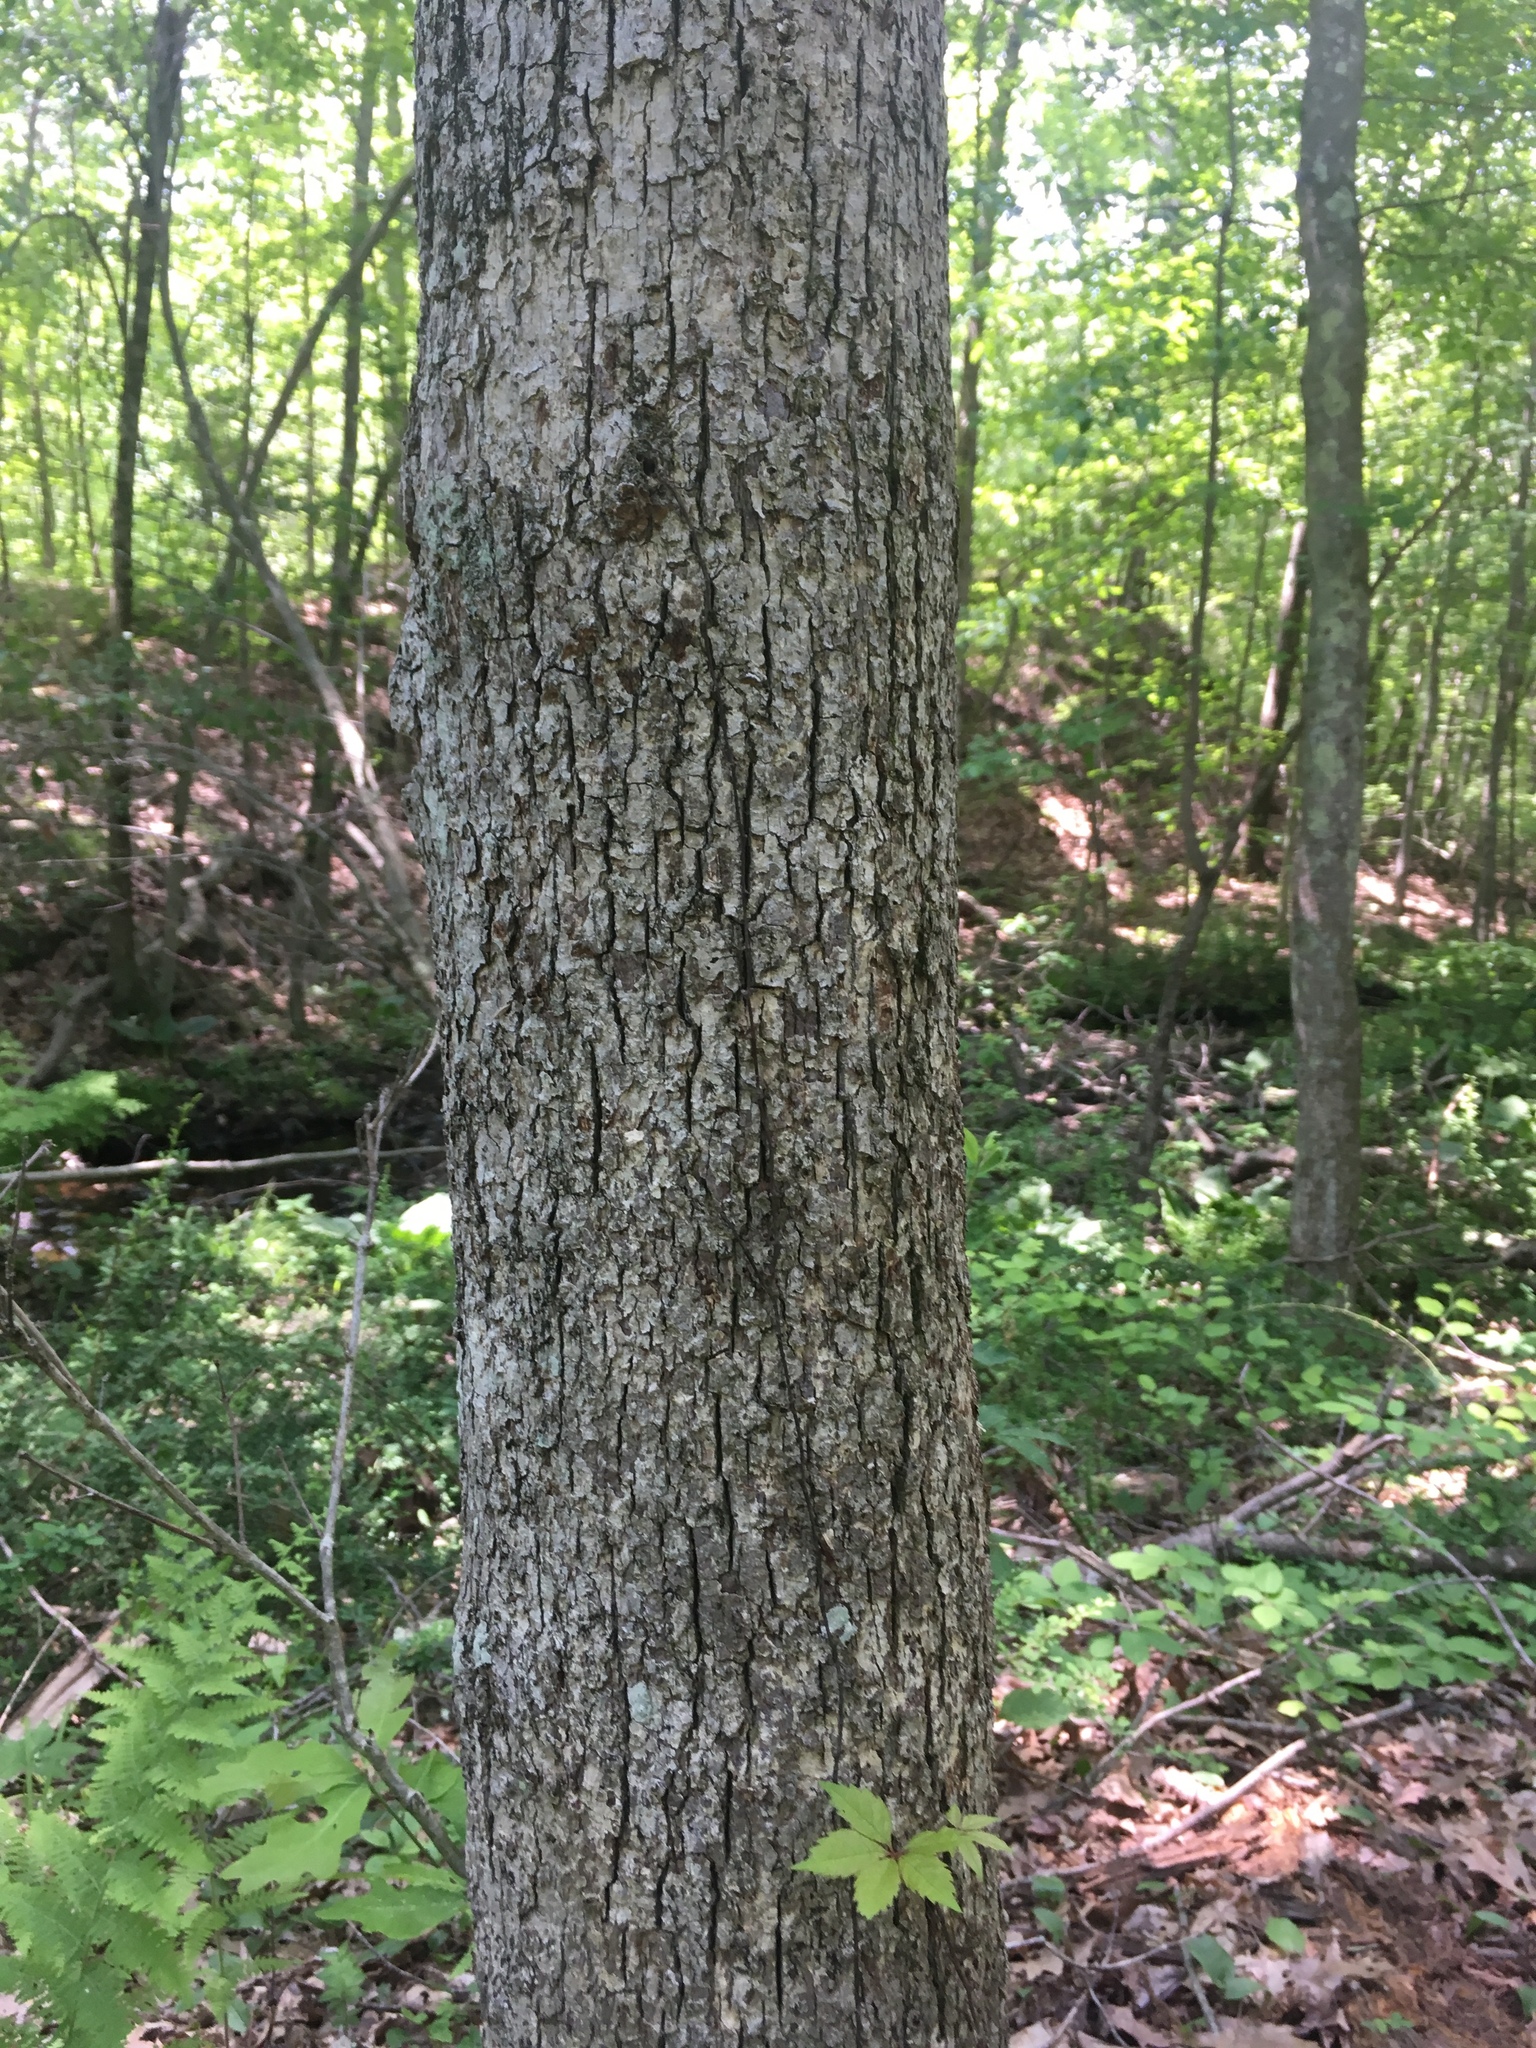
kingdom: Plantae
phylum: Tracheophyta
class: Magnoliopsida
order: Fagales
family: Fagaceae
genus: Quercus
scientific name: Quercus alba
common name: White oak
